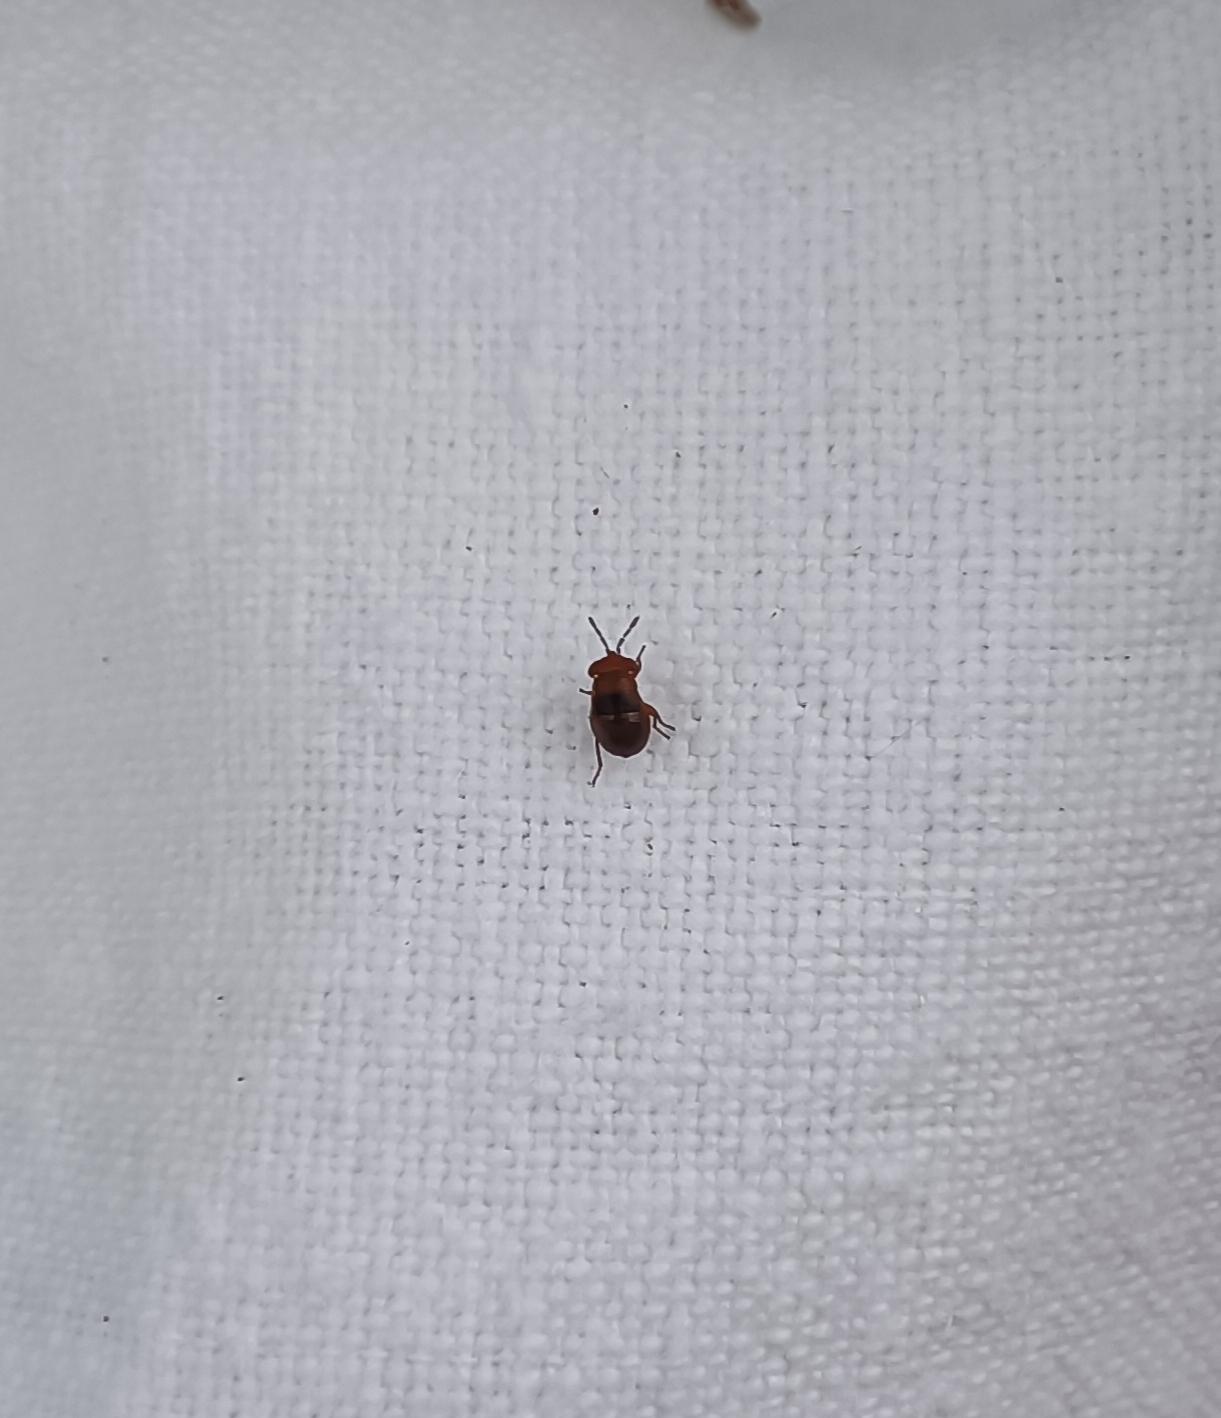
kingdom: Animalia
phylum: Arthropoda
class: Insecta
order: Hemiptera
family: Geocoridae
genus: Geocoris
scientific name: Geocoris erythrocephala
